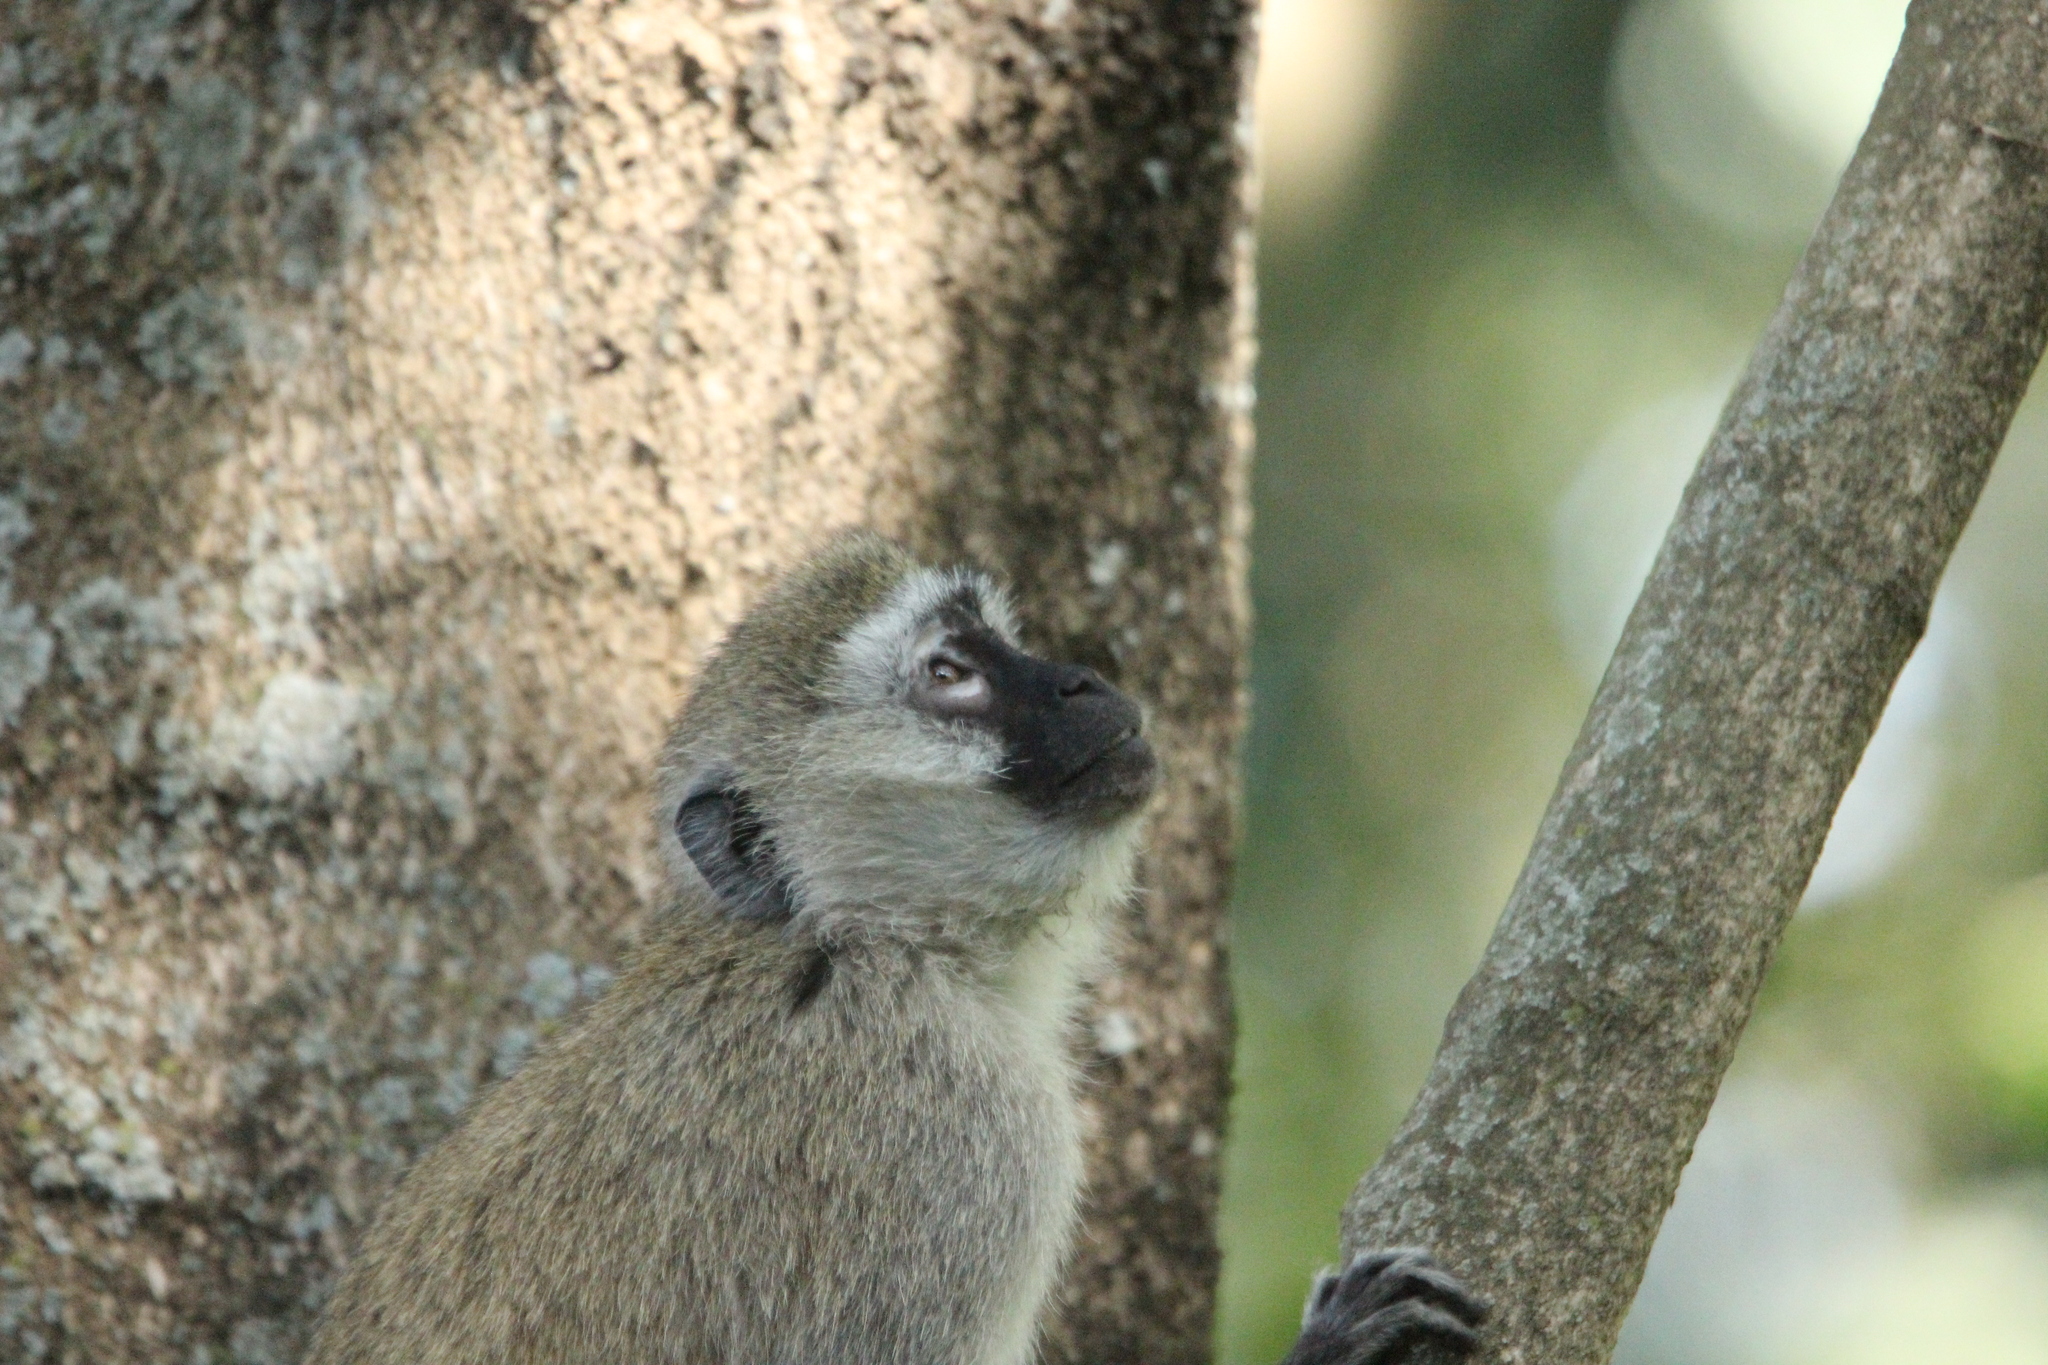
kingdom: Animalia
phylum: Chordata
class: Mammalia
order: Primates
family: Cercopithecidae
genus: Chlorocebus
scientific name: Chlorocebus pygerythrus
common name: Vervet monkey
